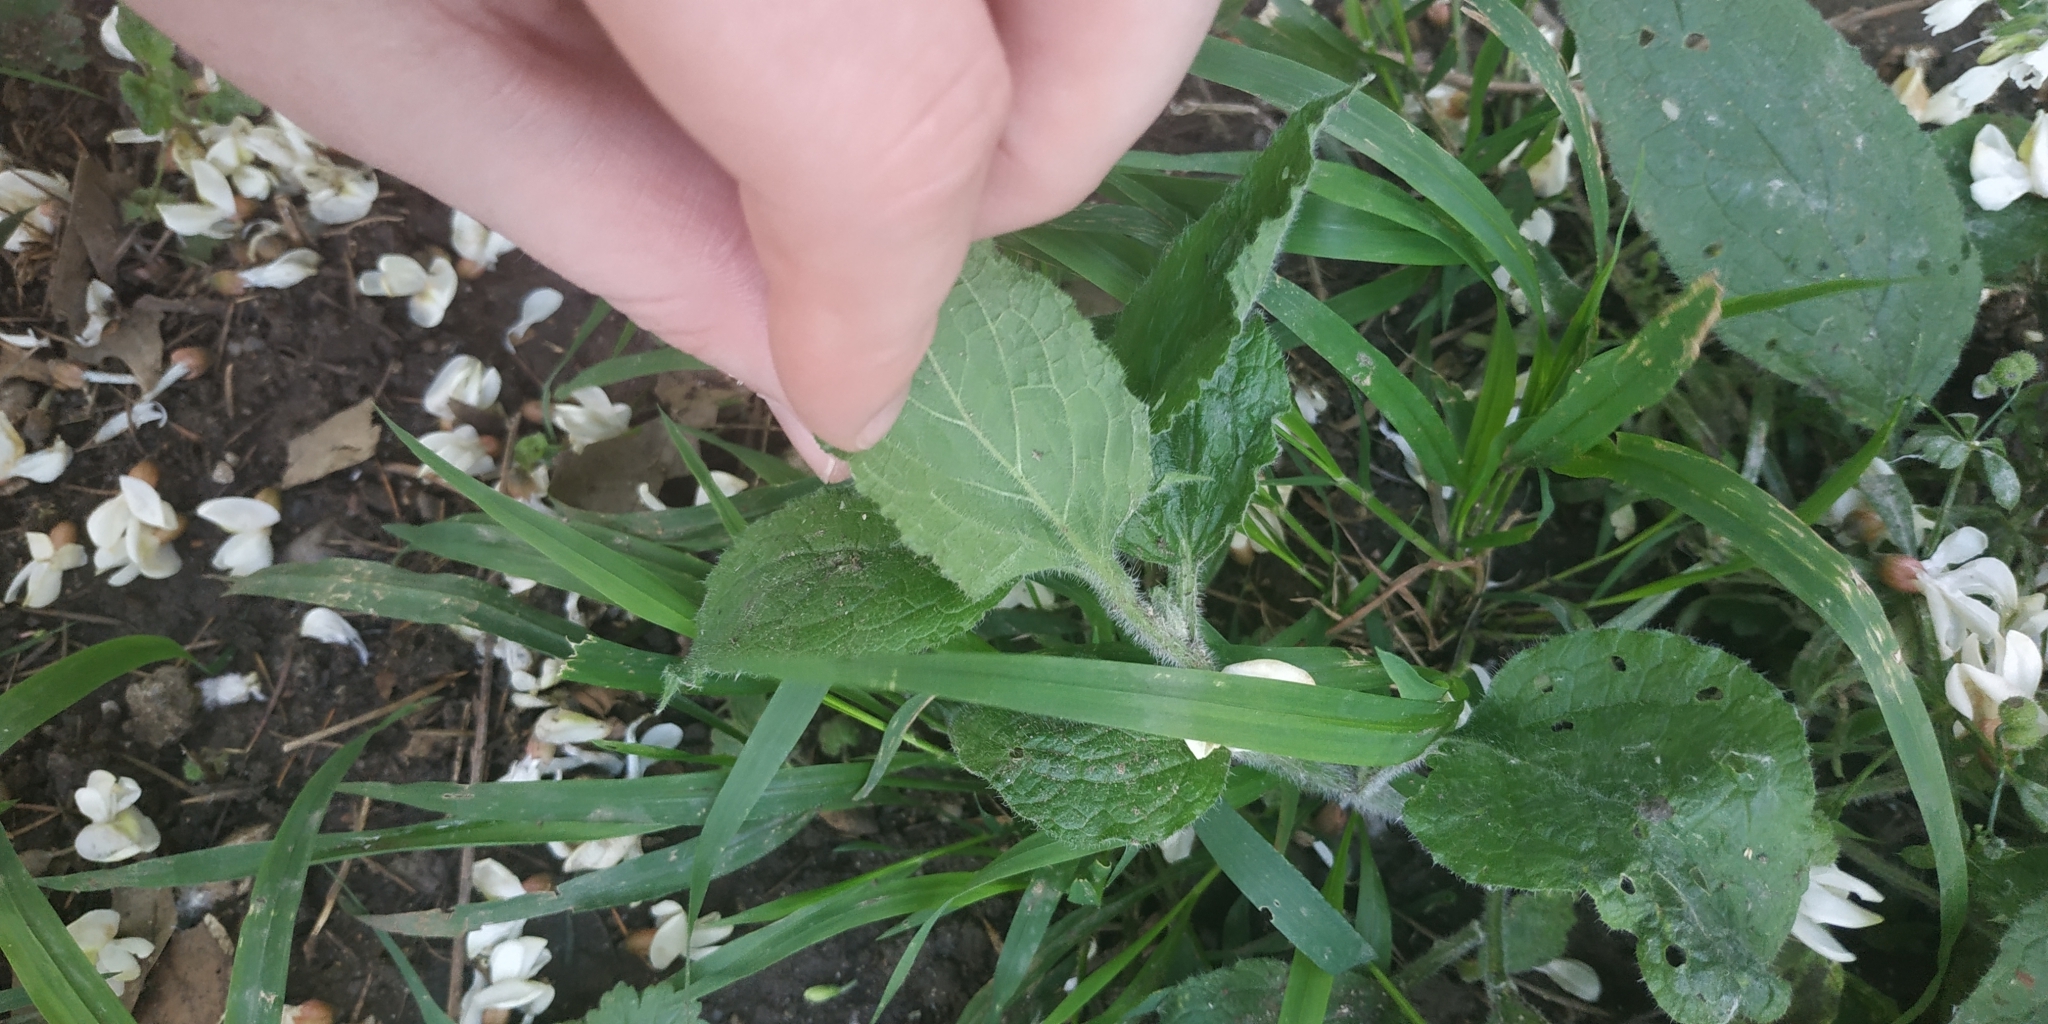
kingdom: Plantae
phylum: Tracheophyta
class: Magnoliopsida
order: Boraginales
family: Boraginaceae
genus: Symphytum
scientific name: Symphytum tauricum
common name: Crimean comfrey
